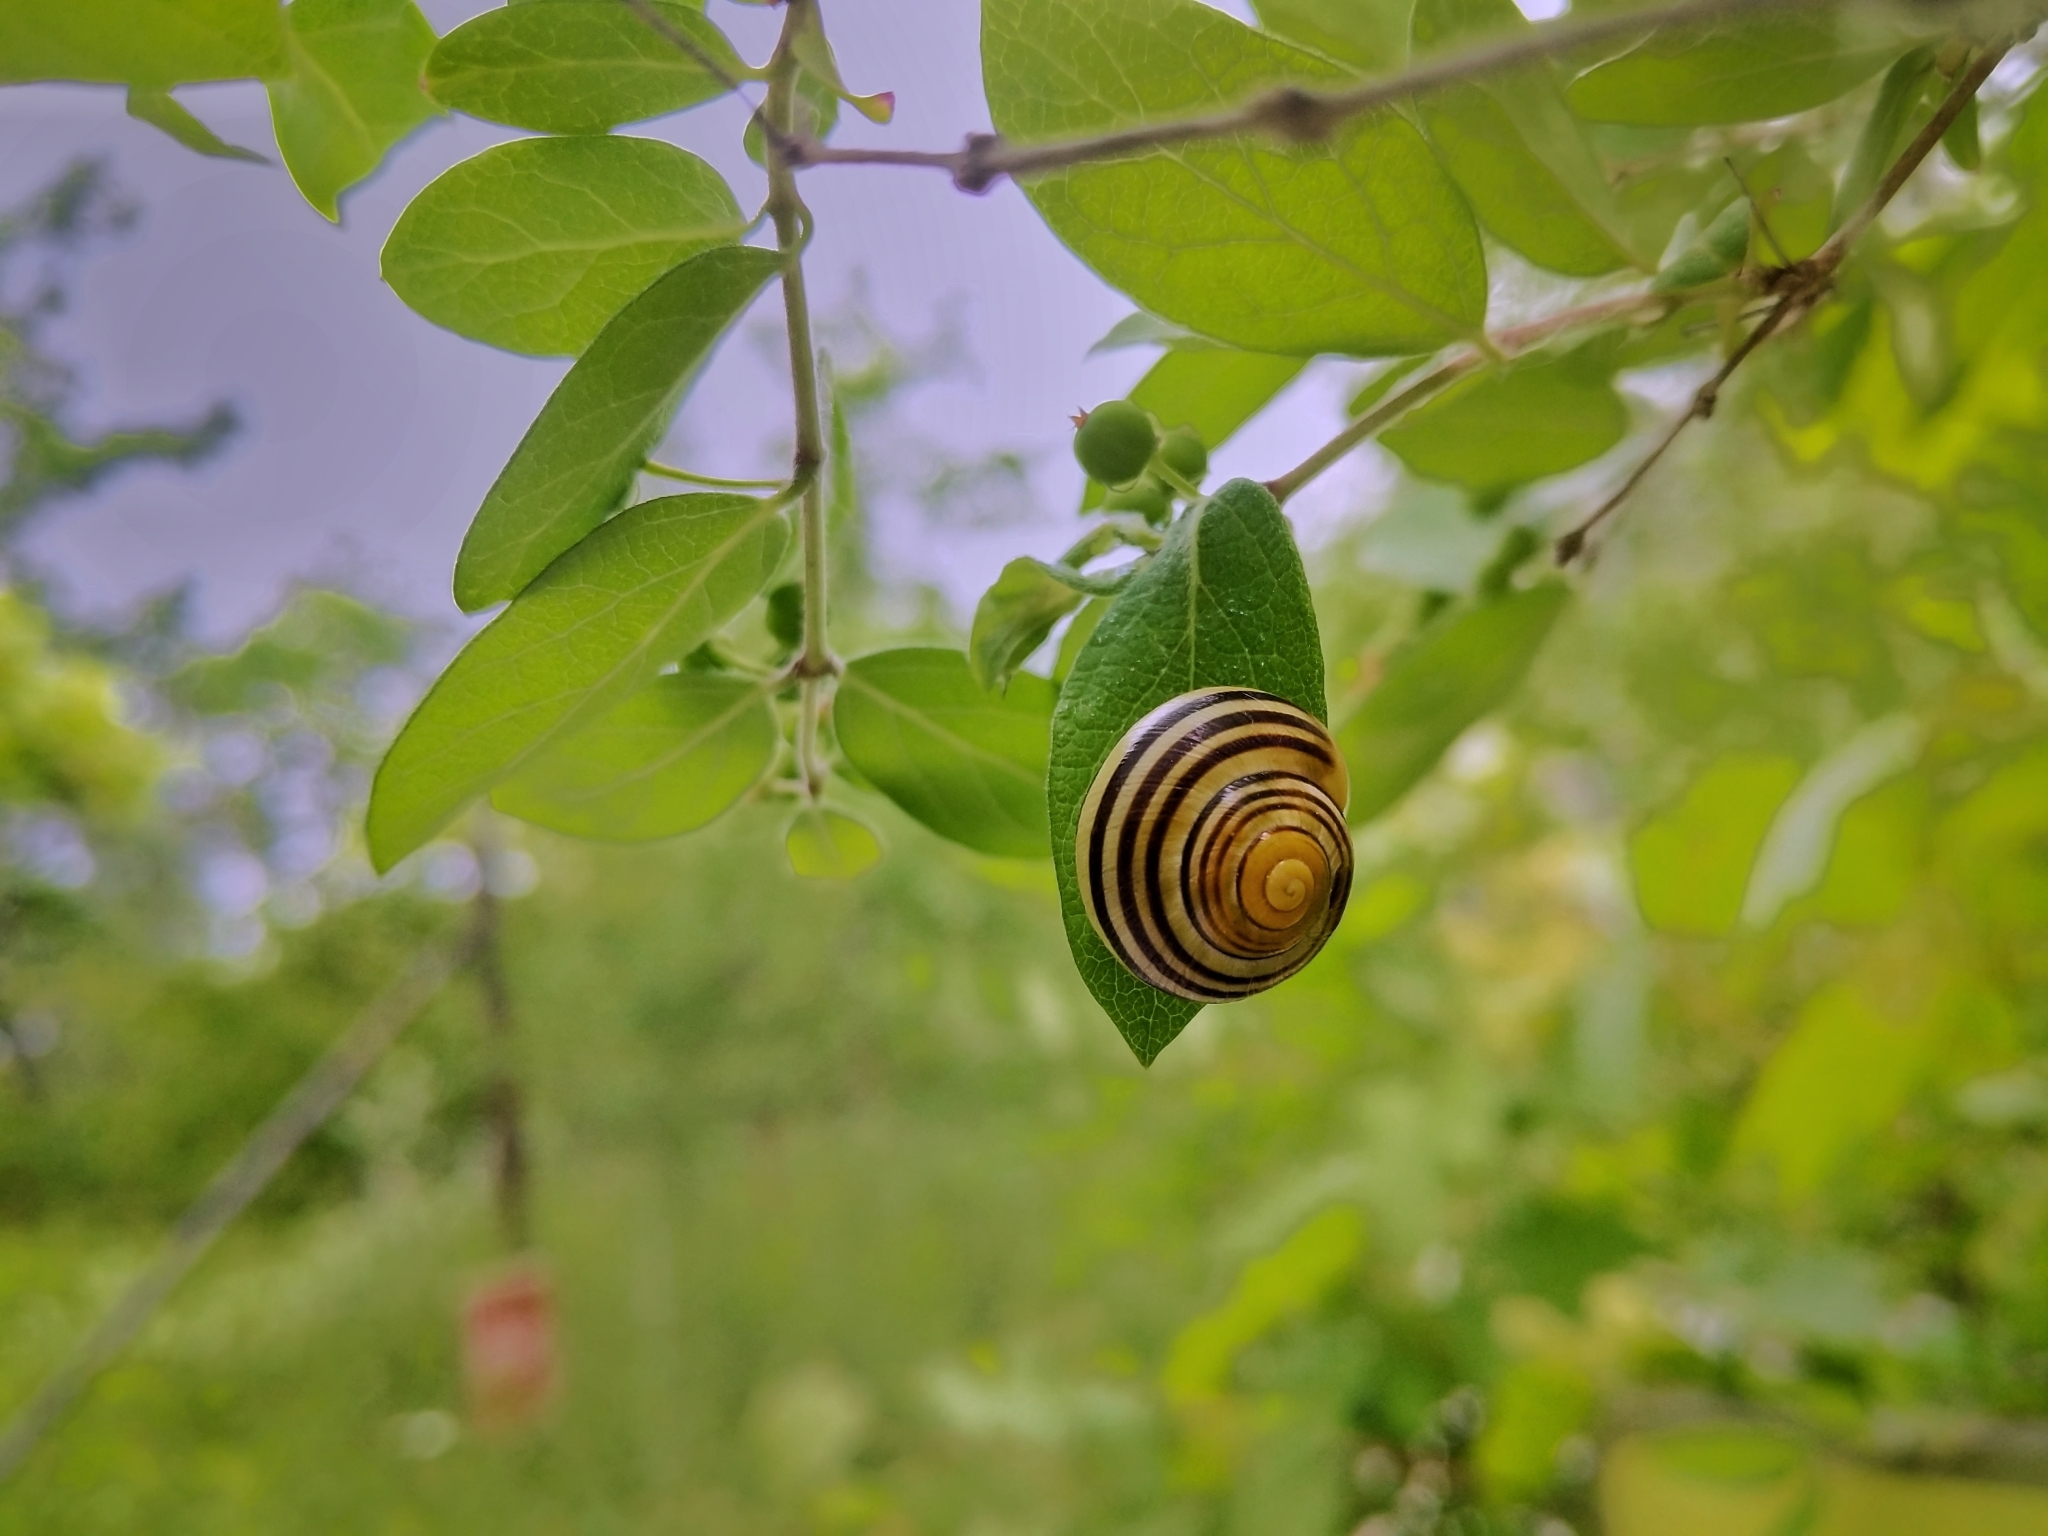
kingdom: Animalia
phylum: Mollusca
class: Gastropoda
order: Stylommatophora
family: Helicidae
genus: Cepaea
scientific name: Cepaea
